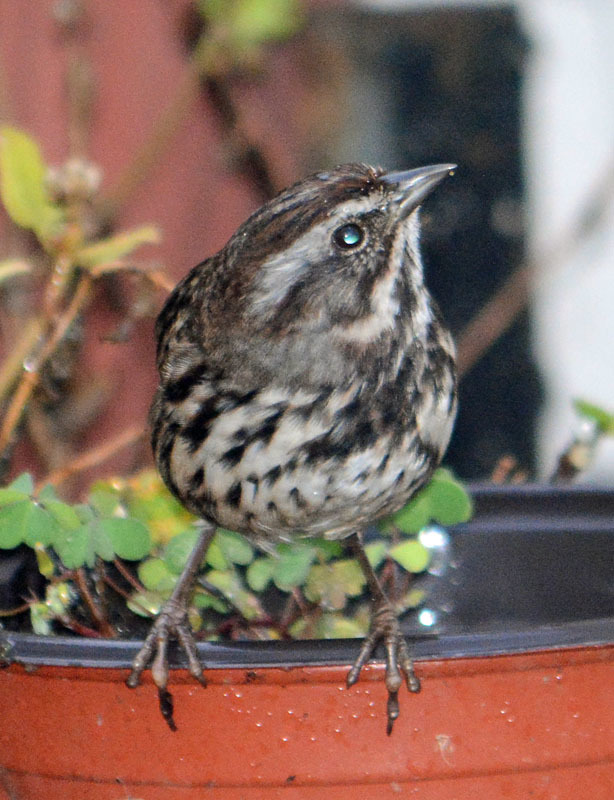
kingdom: Animalia
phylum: Chordata
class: Aves
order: Passeriformes
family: Passerellidae
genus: Melospiza
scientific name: Melospiza melodia
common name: Song sparrow
